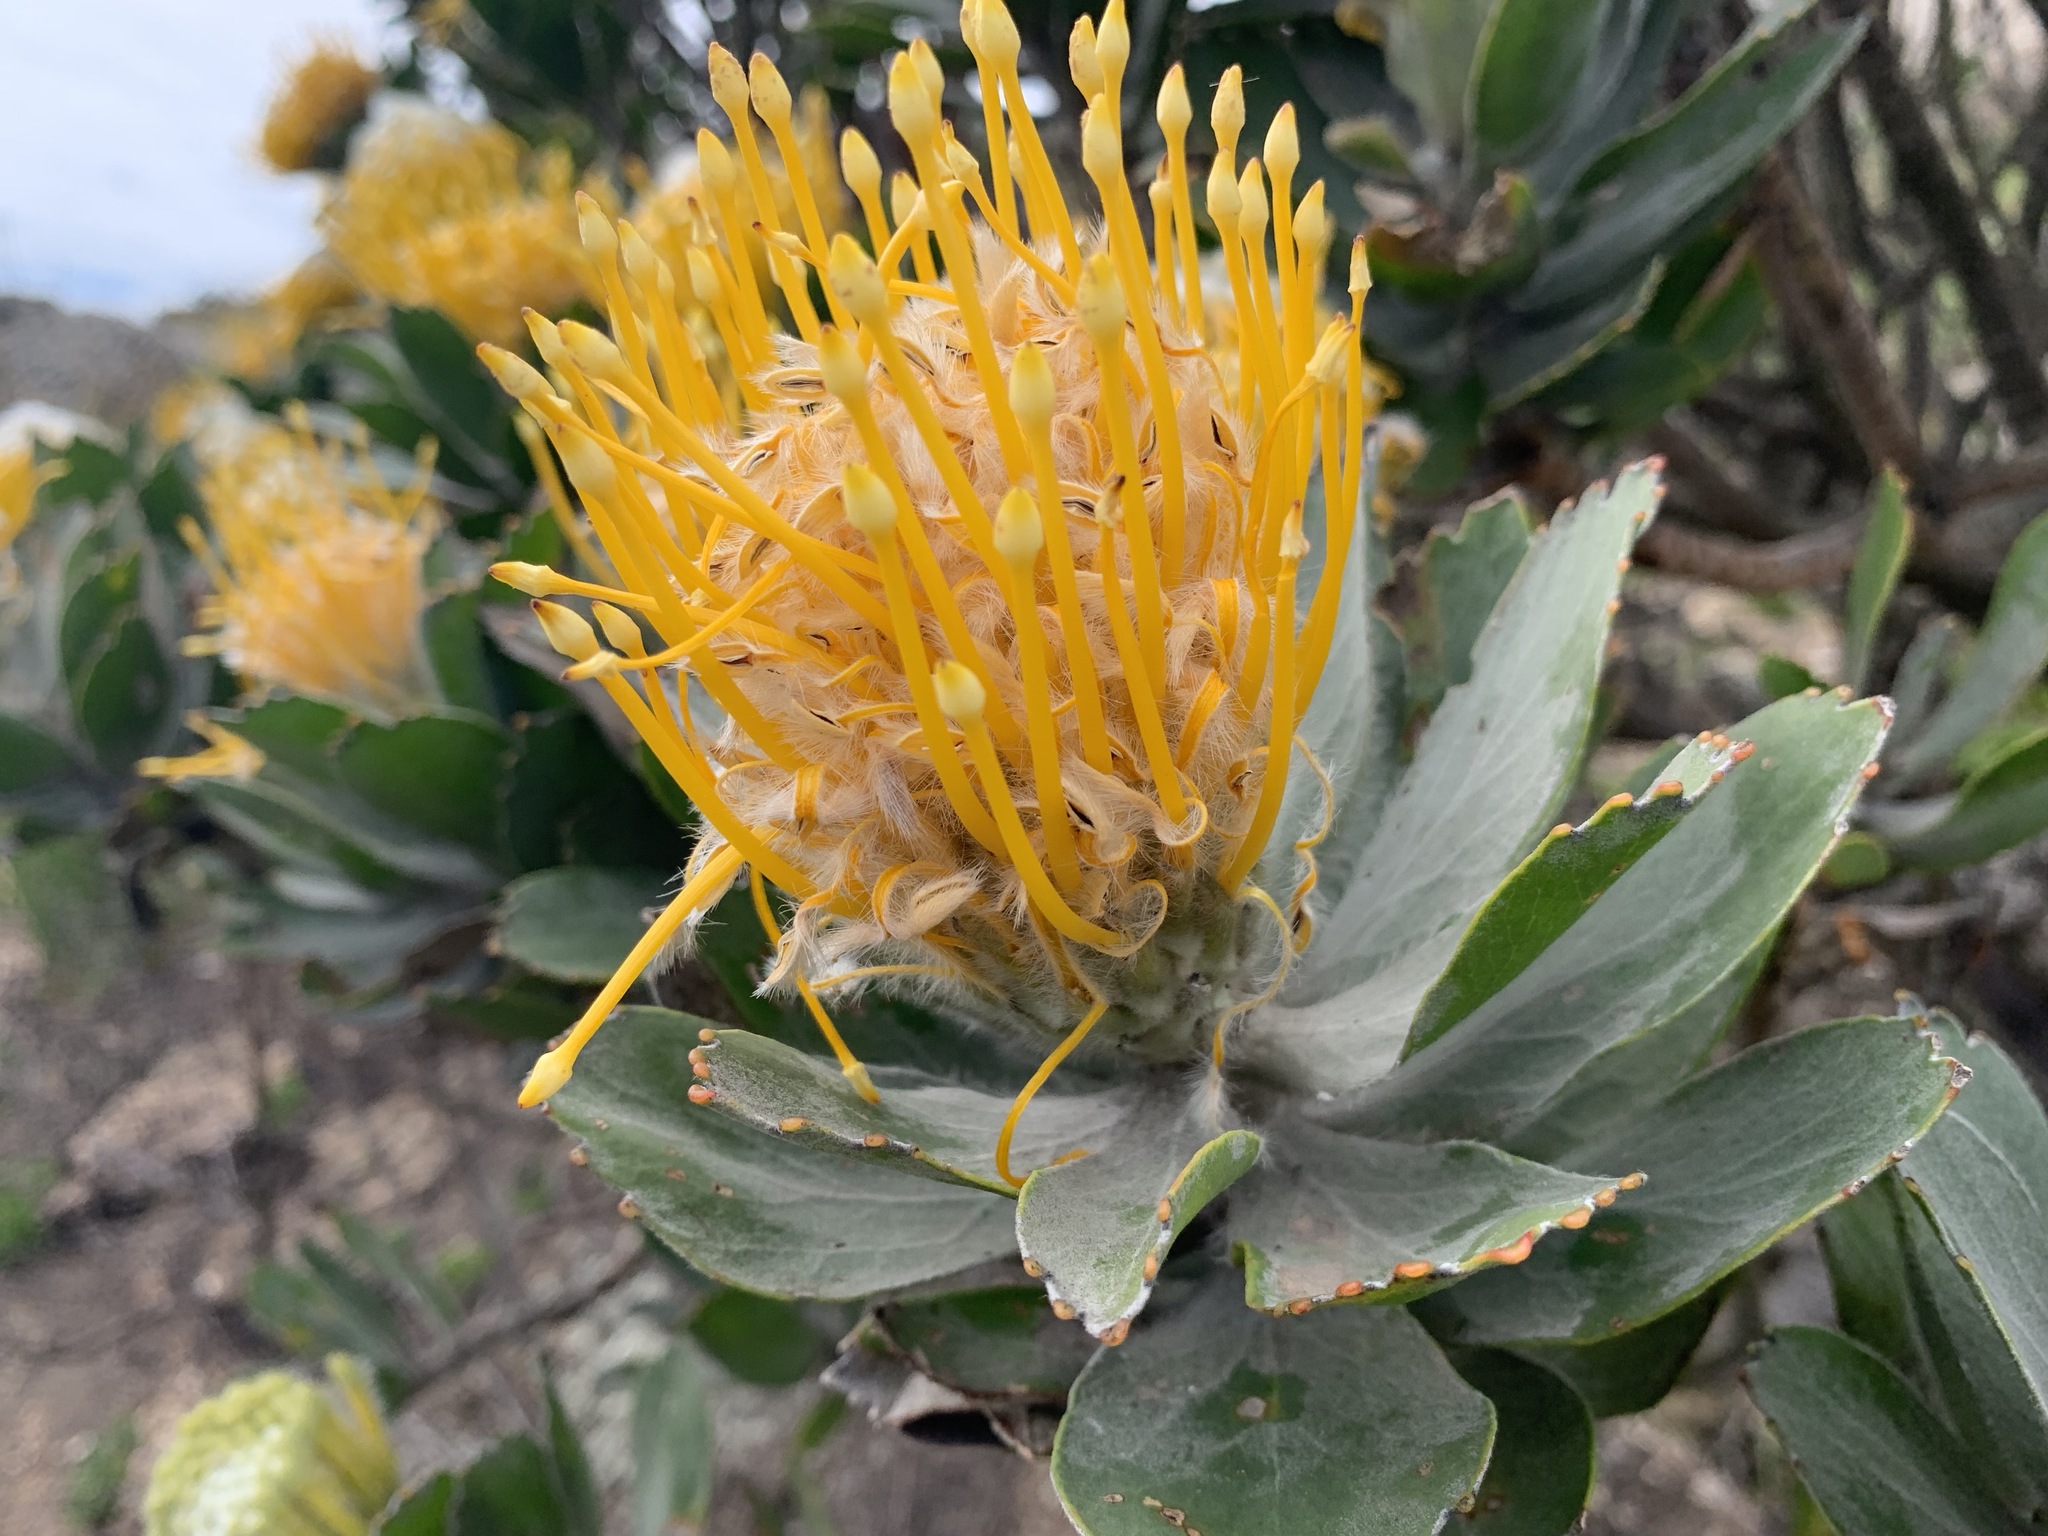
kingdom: Plantae
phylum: Tracheophyta
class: Magnoliopsida
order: Proteales
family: Proteaceae
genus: Leucospermum
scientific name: Leucospermum conocarpodendron
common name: Tree pincushion
